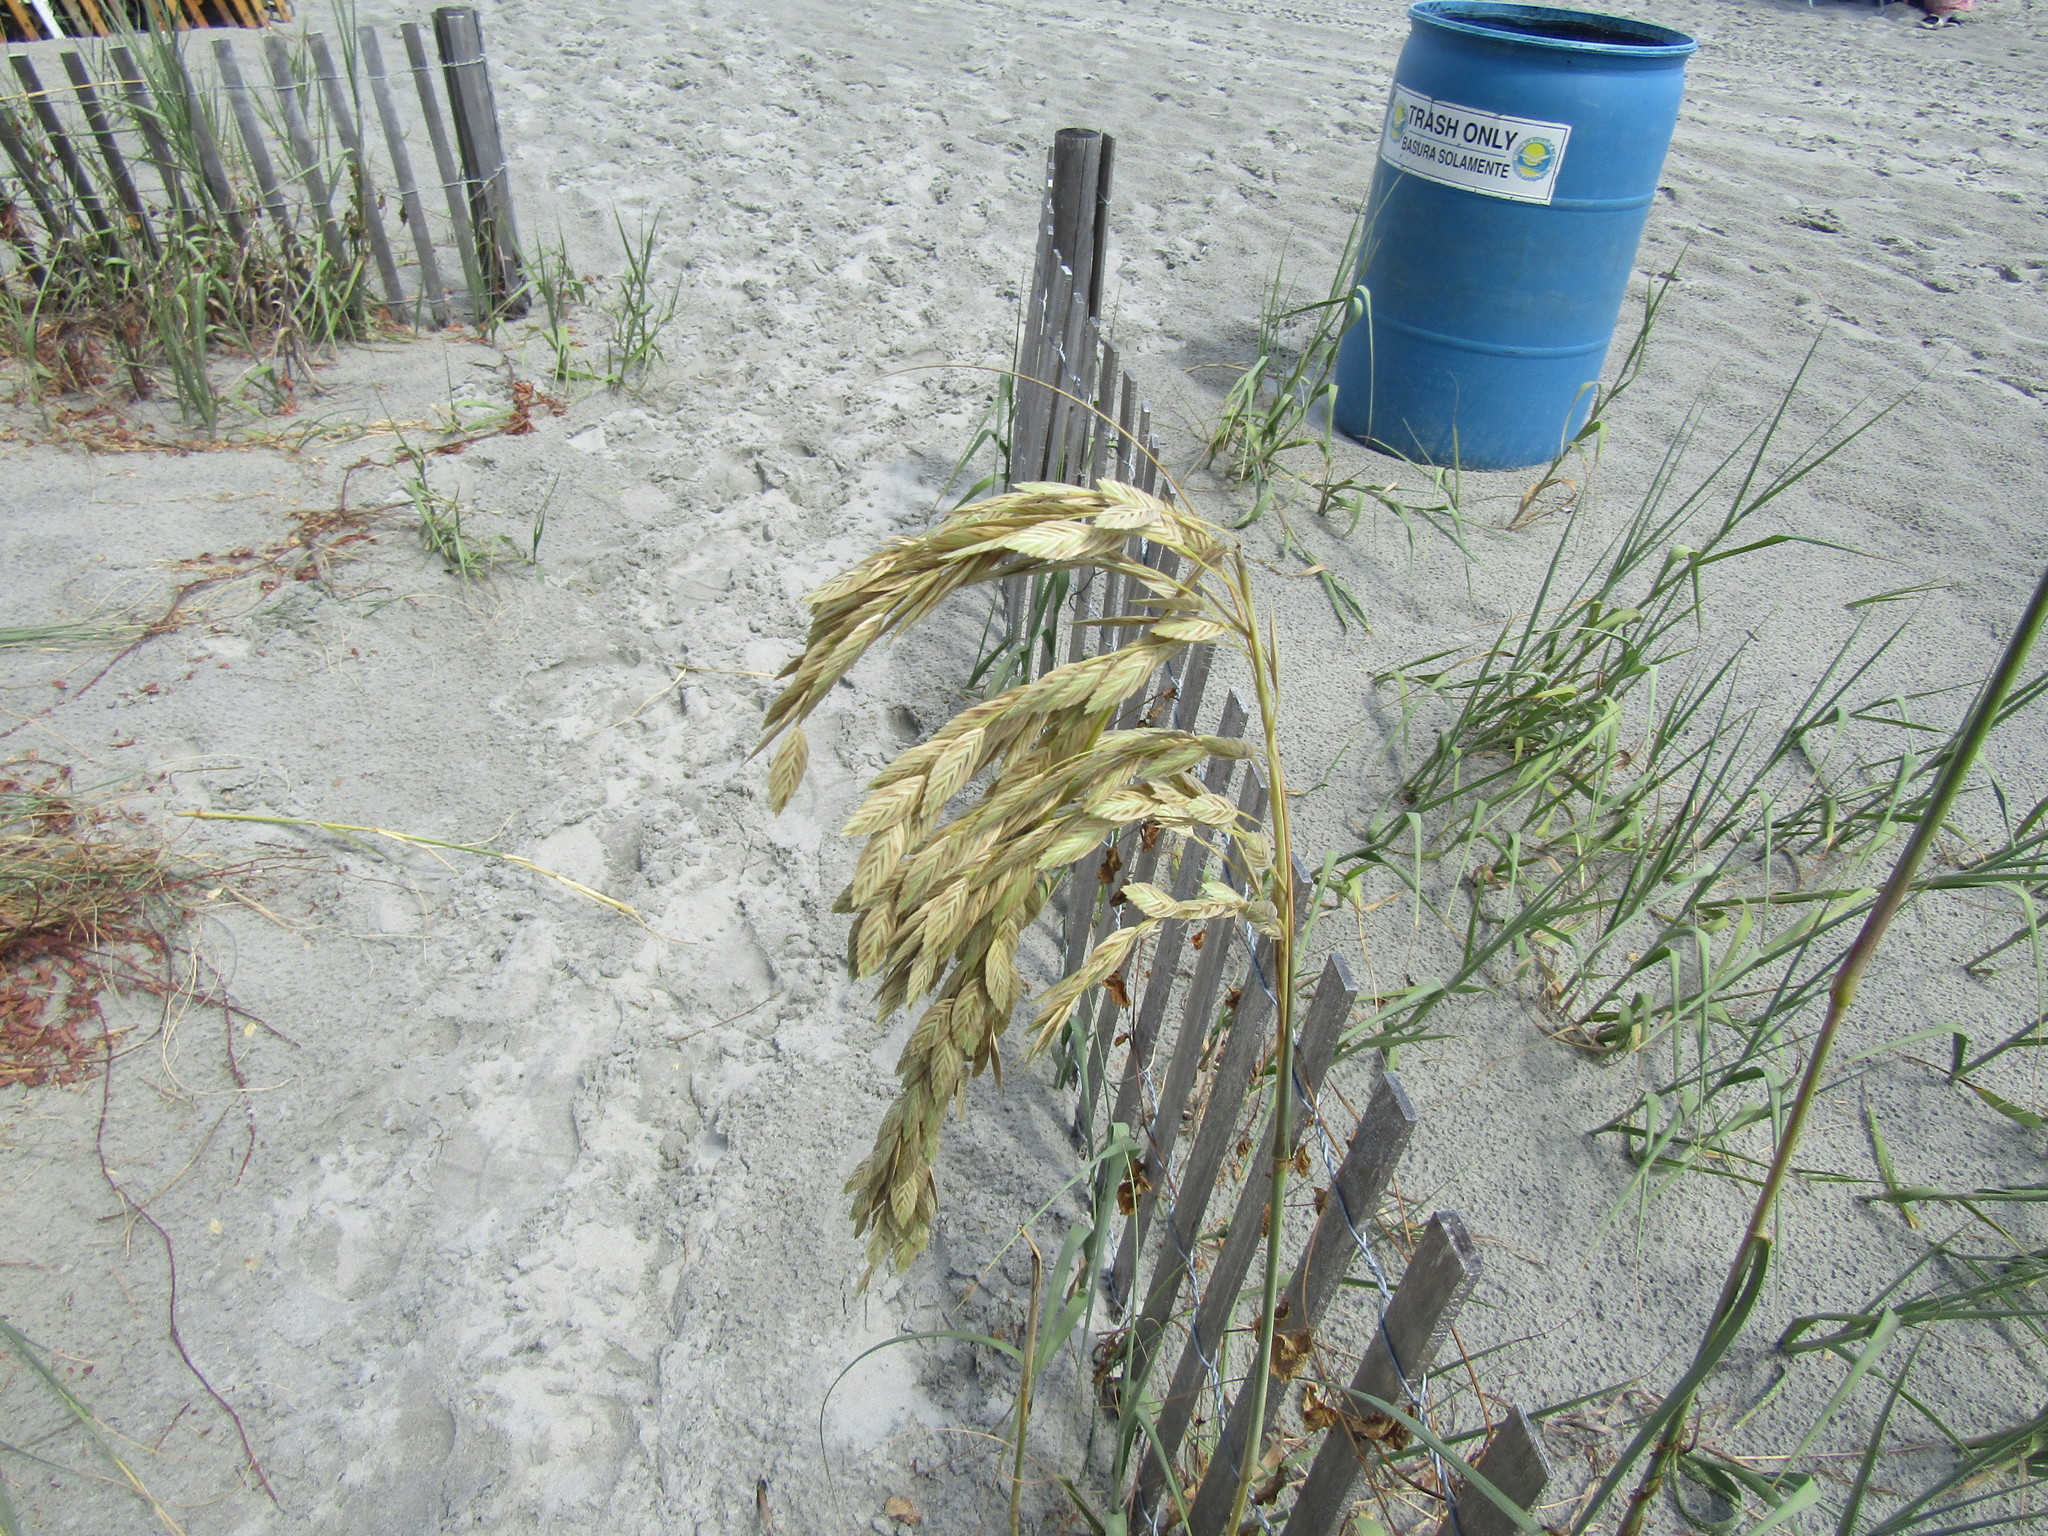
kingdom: Plantae
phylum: Tracheophyta
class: Liliopsida
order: Poales
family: Poaceae
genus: Uniola
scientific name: Uniola paniculata
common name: Seaside-oats
